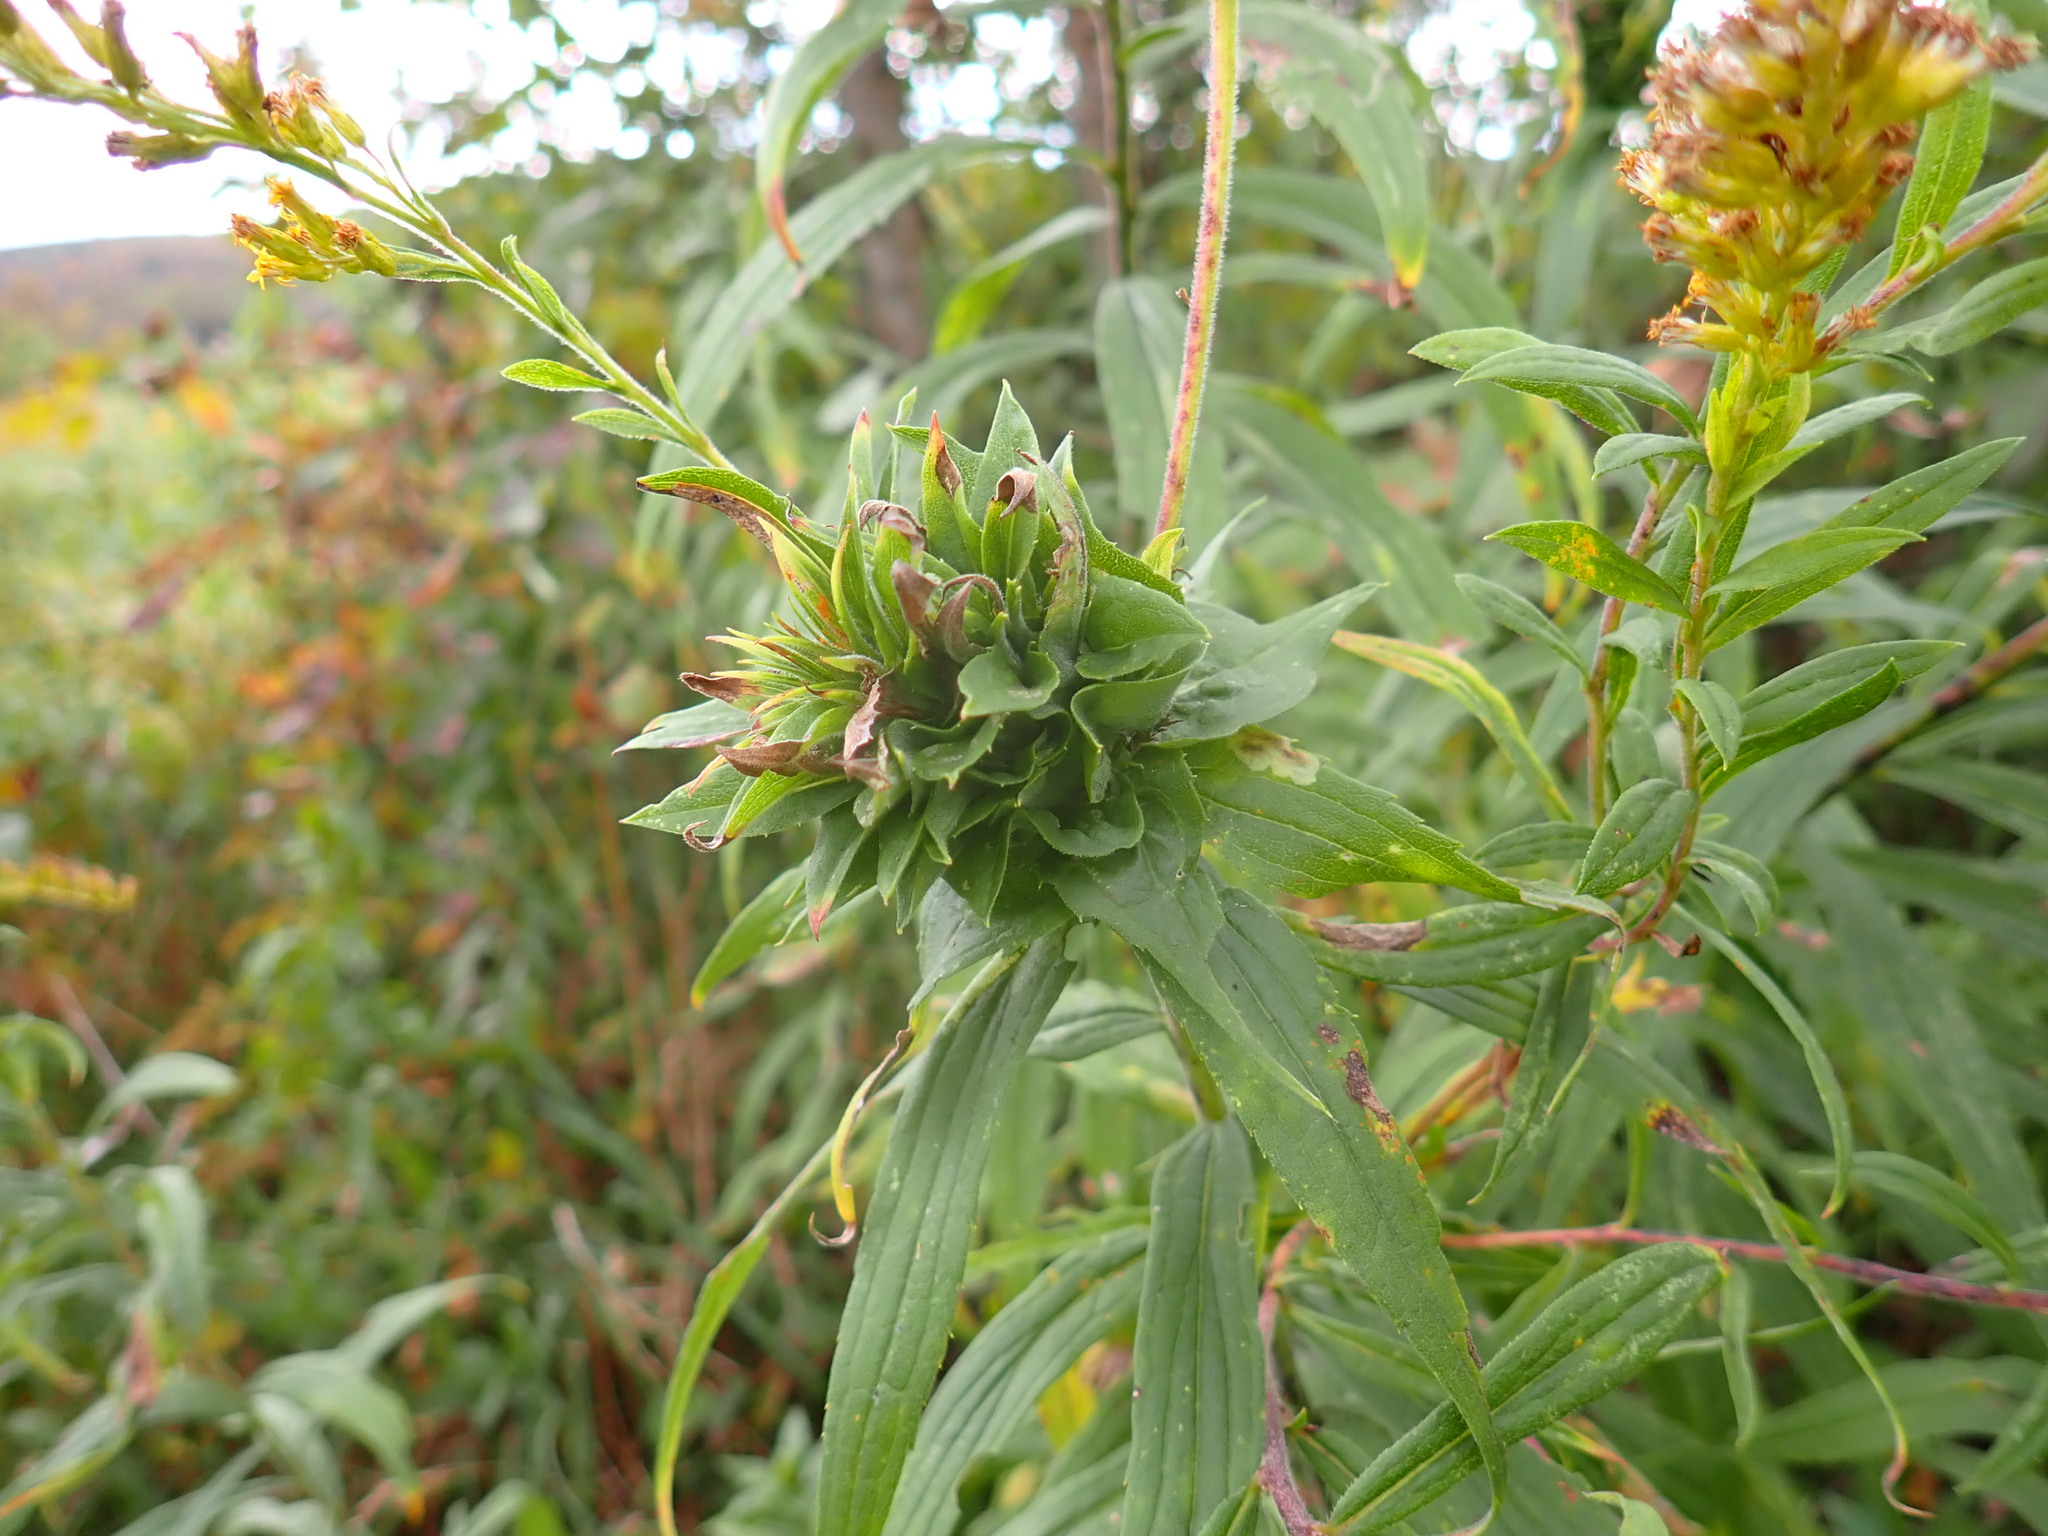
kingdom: Animalia
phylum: Arthropoda
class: Insecta
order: Diptera
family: Cecidomyiidae
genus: Rhopalomyia
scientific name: Rhopalomyia solidaginis
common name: Goldenrod bunch gall midge
